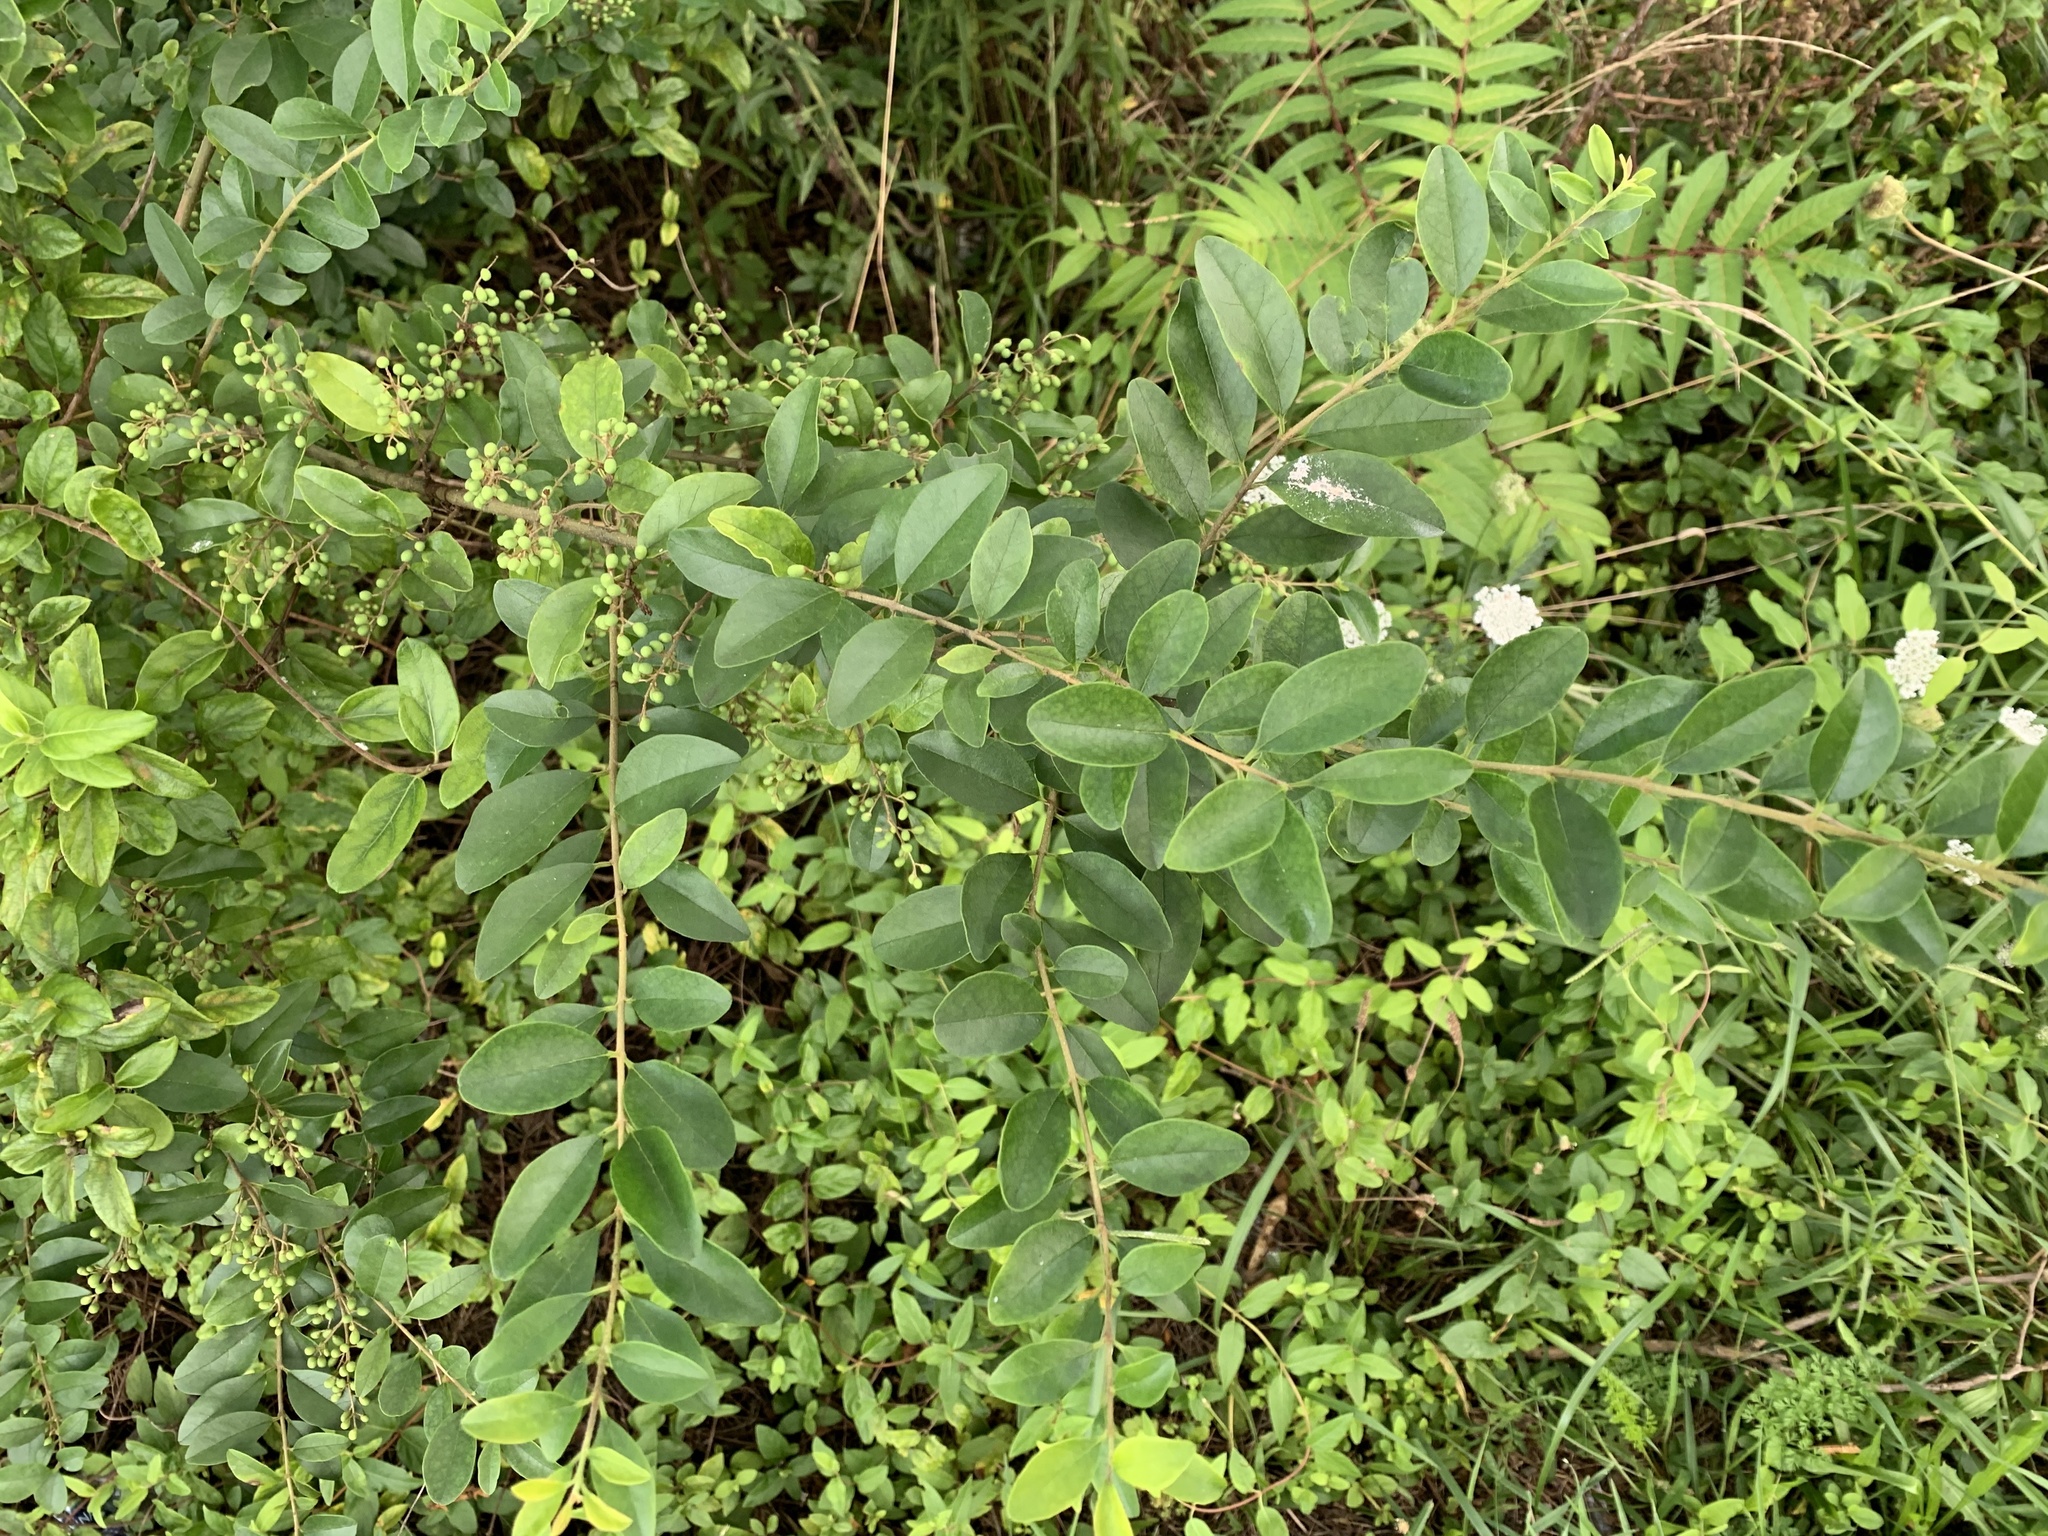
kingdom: Plantae
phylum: Tracheophyta
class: Magnoliopsida
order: Lamiales
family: Oleaceae
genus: Ligustrum
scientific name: Ligustrum sinense
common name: Chinese privet
